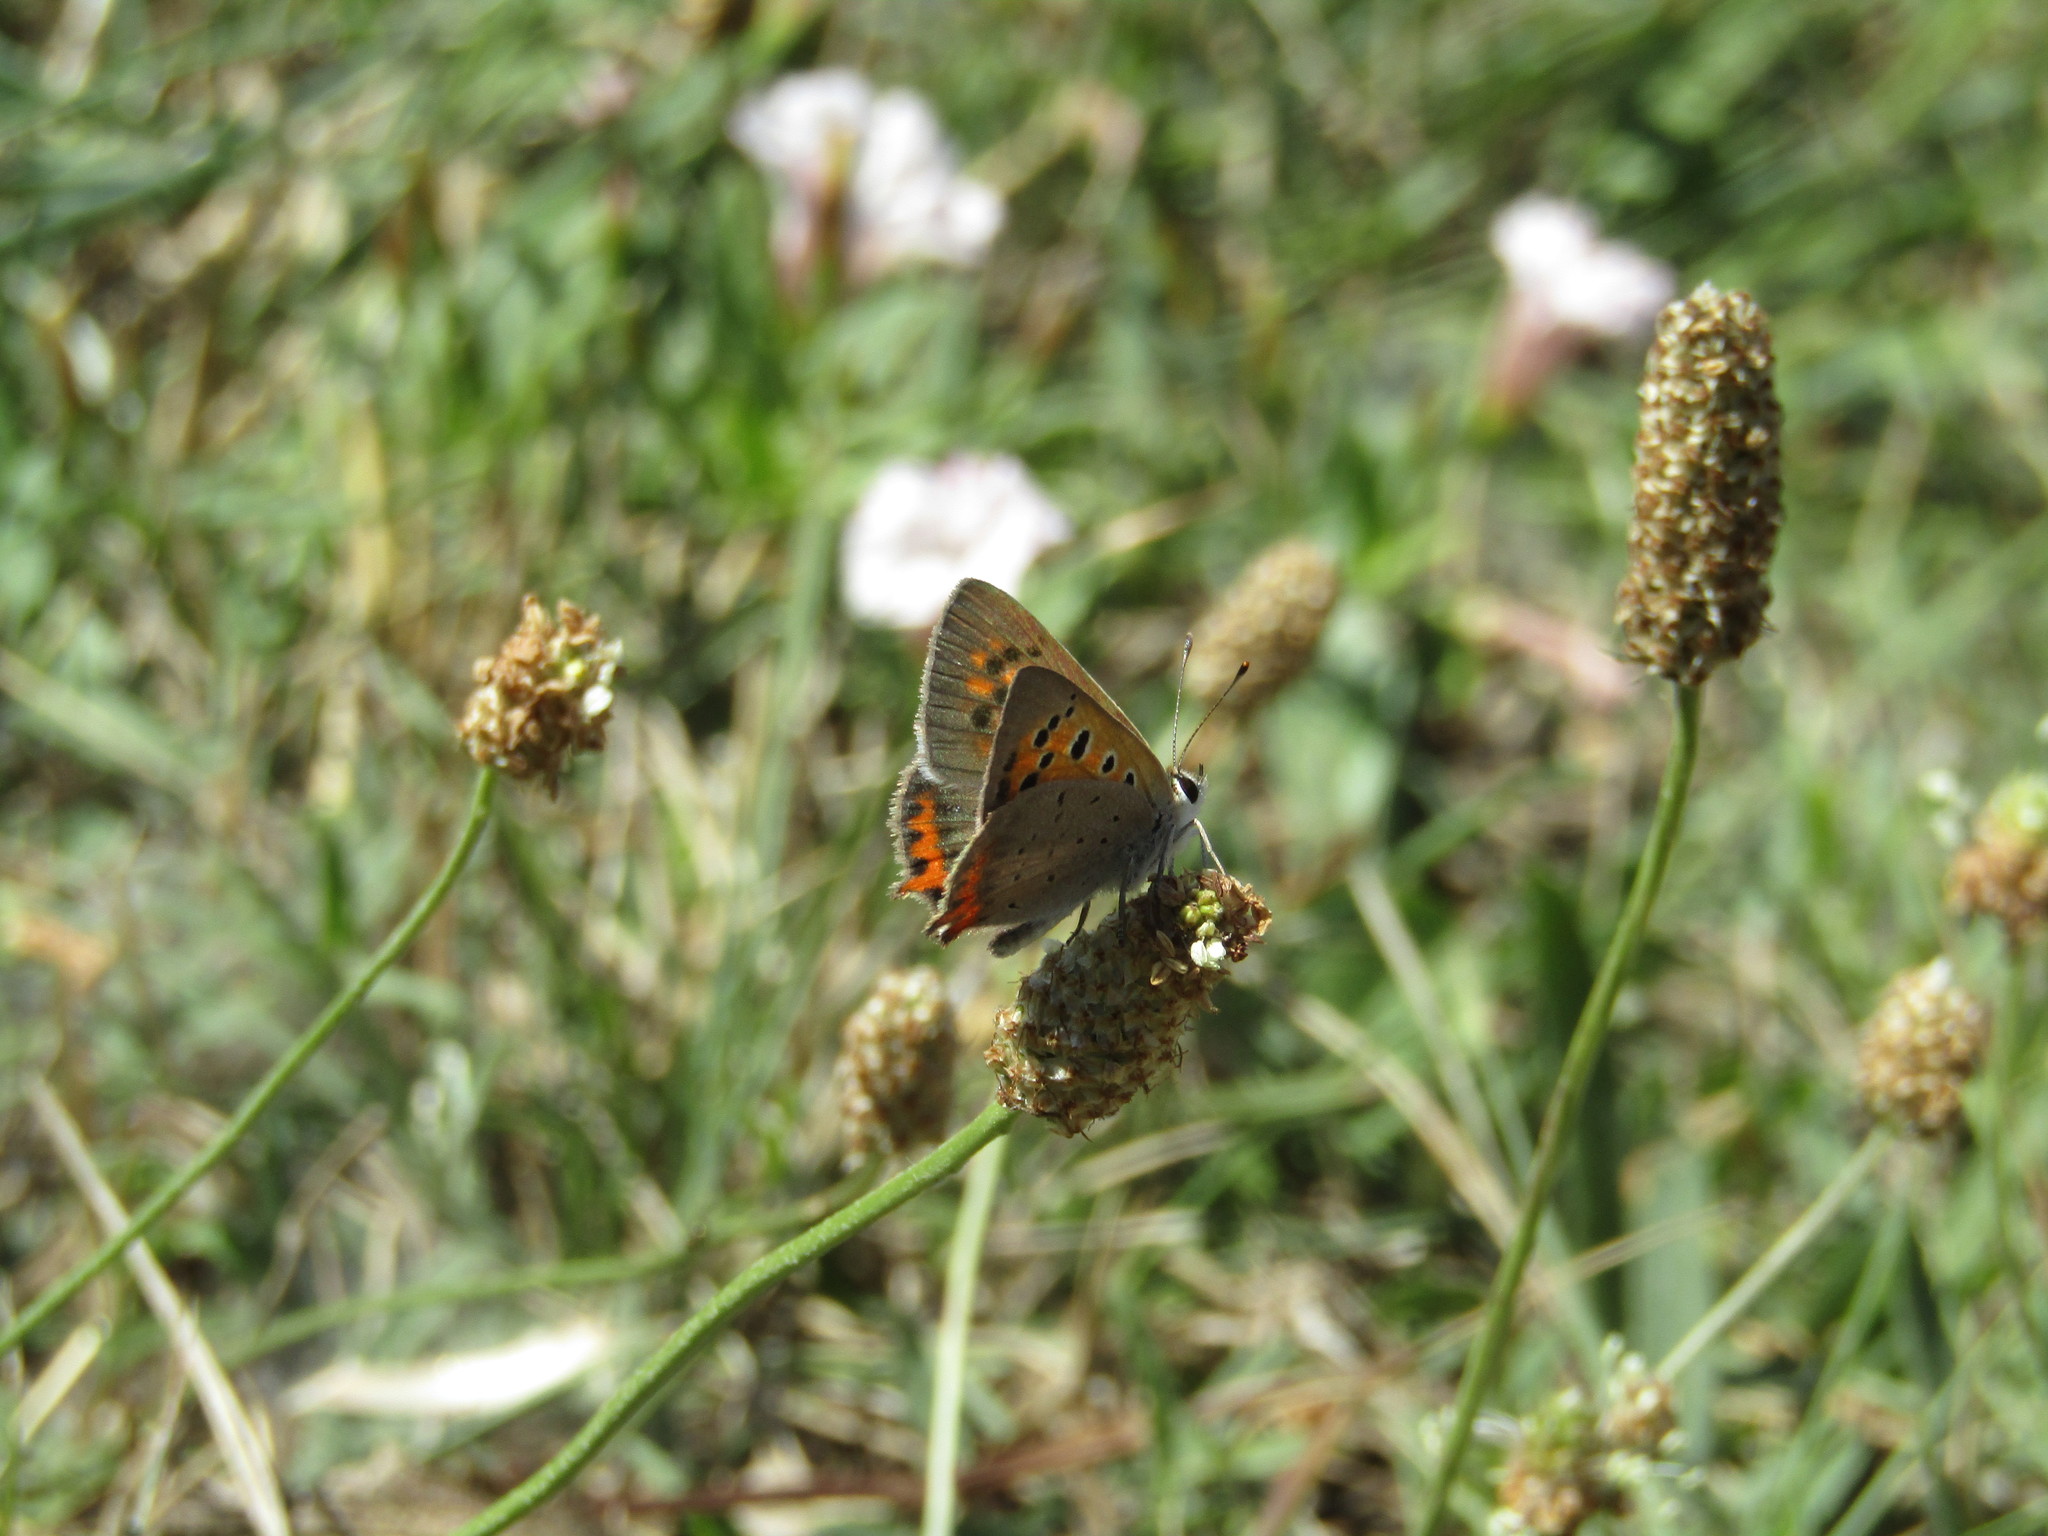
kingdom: Animalia
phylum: Arthropoda
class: Insecta
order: Lepidoptera
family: Lycaenidae
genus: Lycaena
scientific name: Lycaena phlaeas
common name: Small copper
